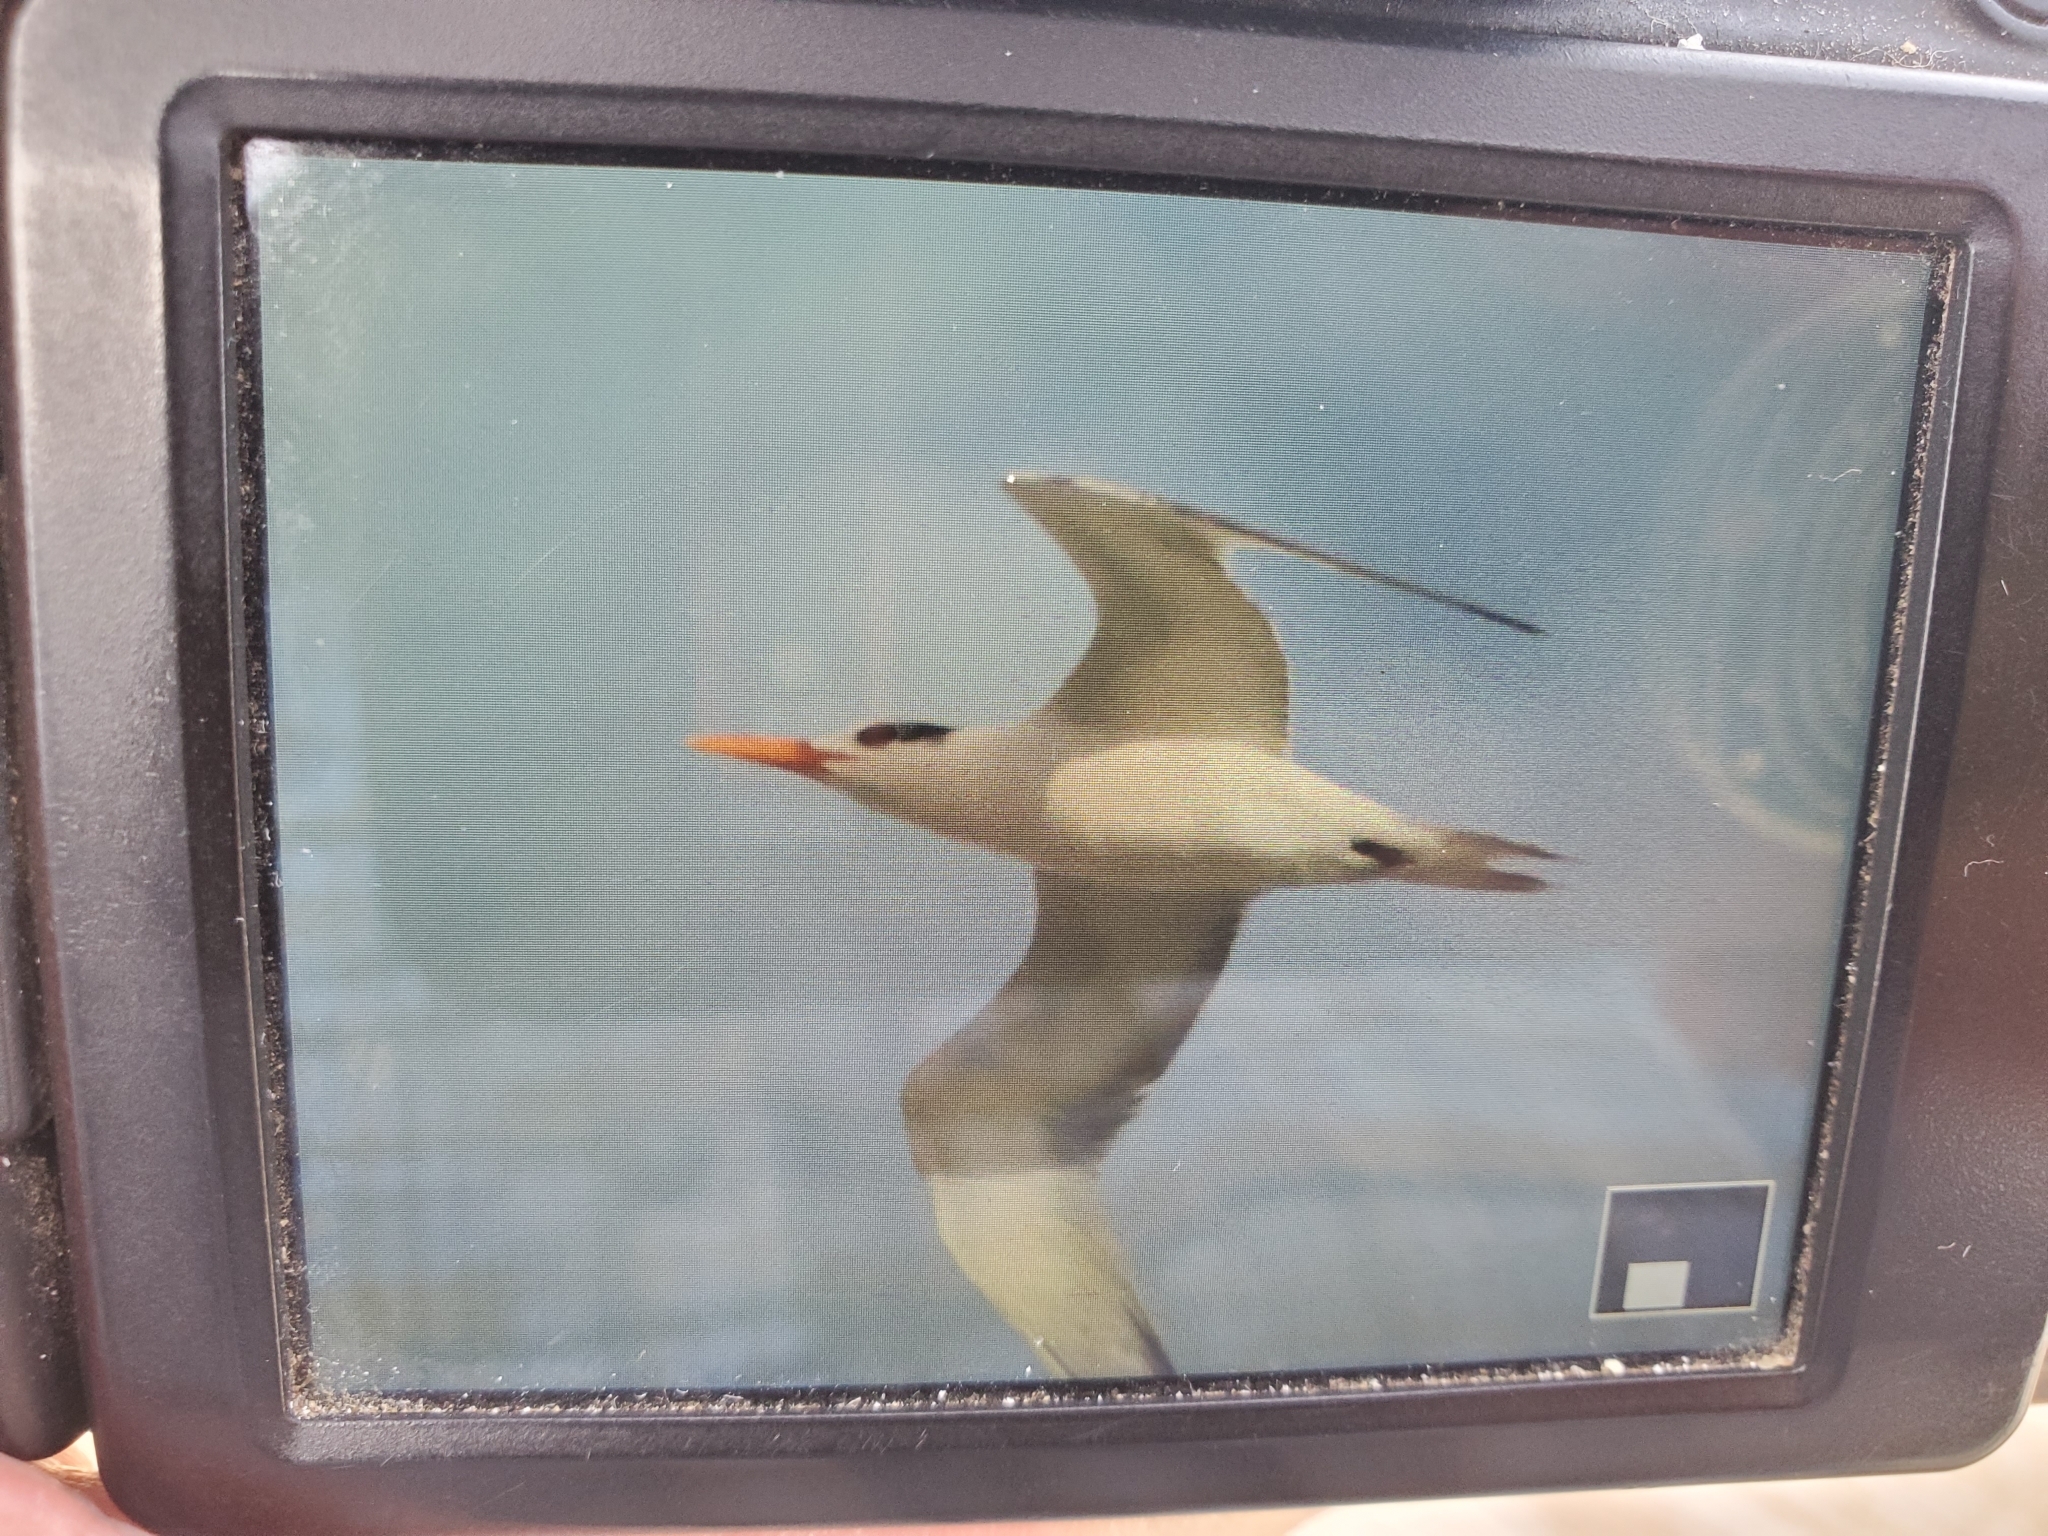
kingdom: Animalia
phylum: Chordata
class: Aves
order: Charadriiformes
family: Laridae
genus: Thalasseus
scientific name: Thalasseus maximus
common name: Royal tern
